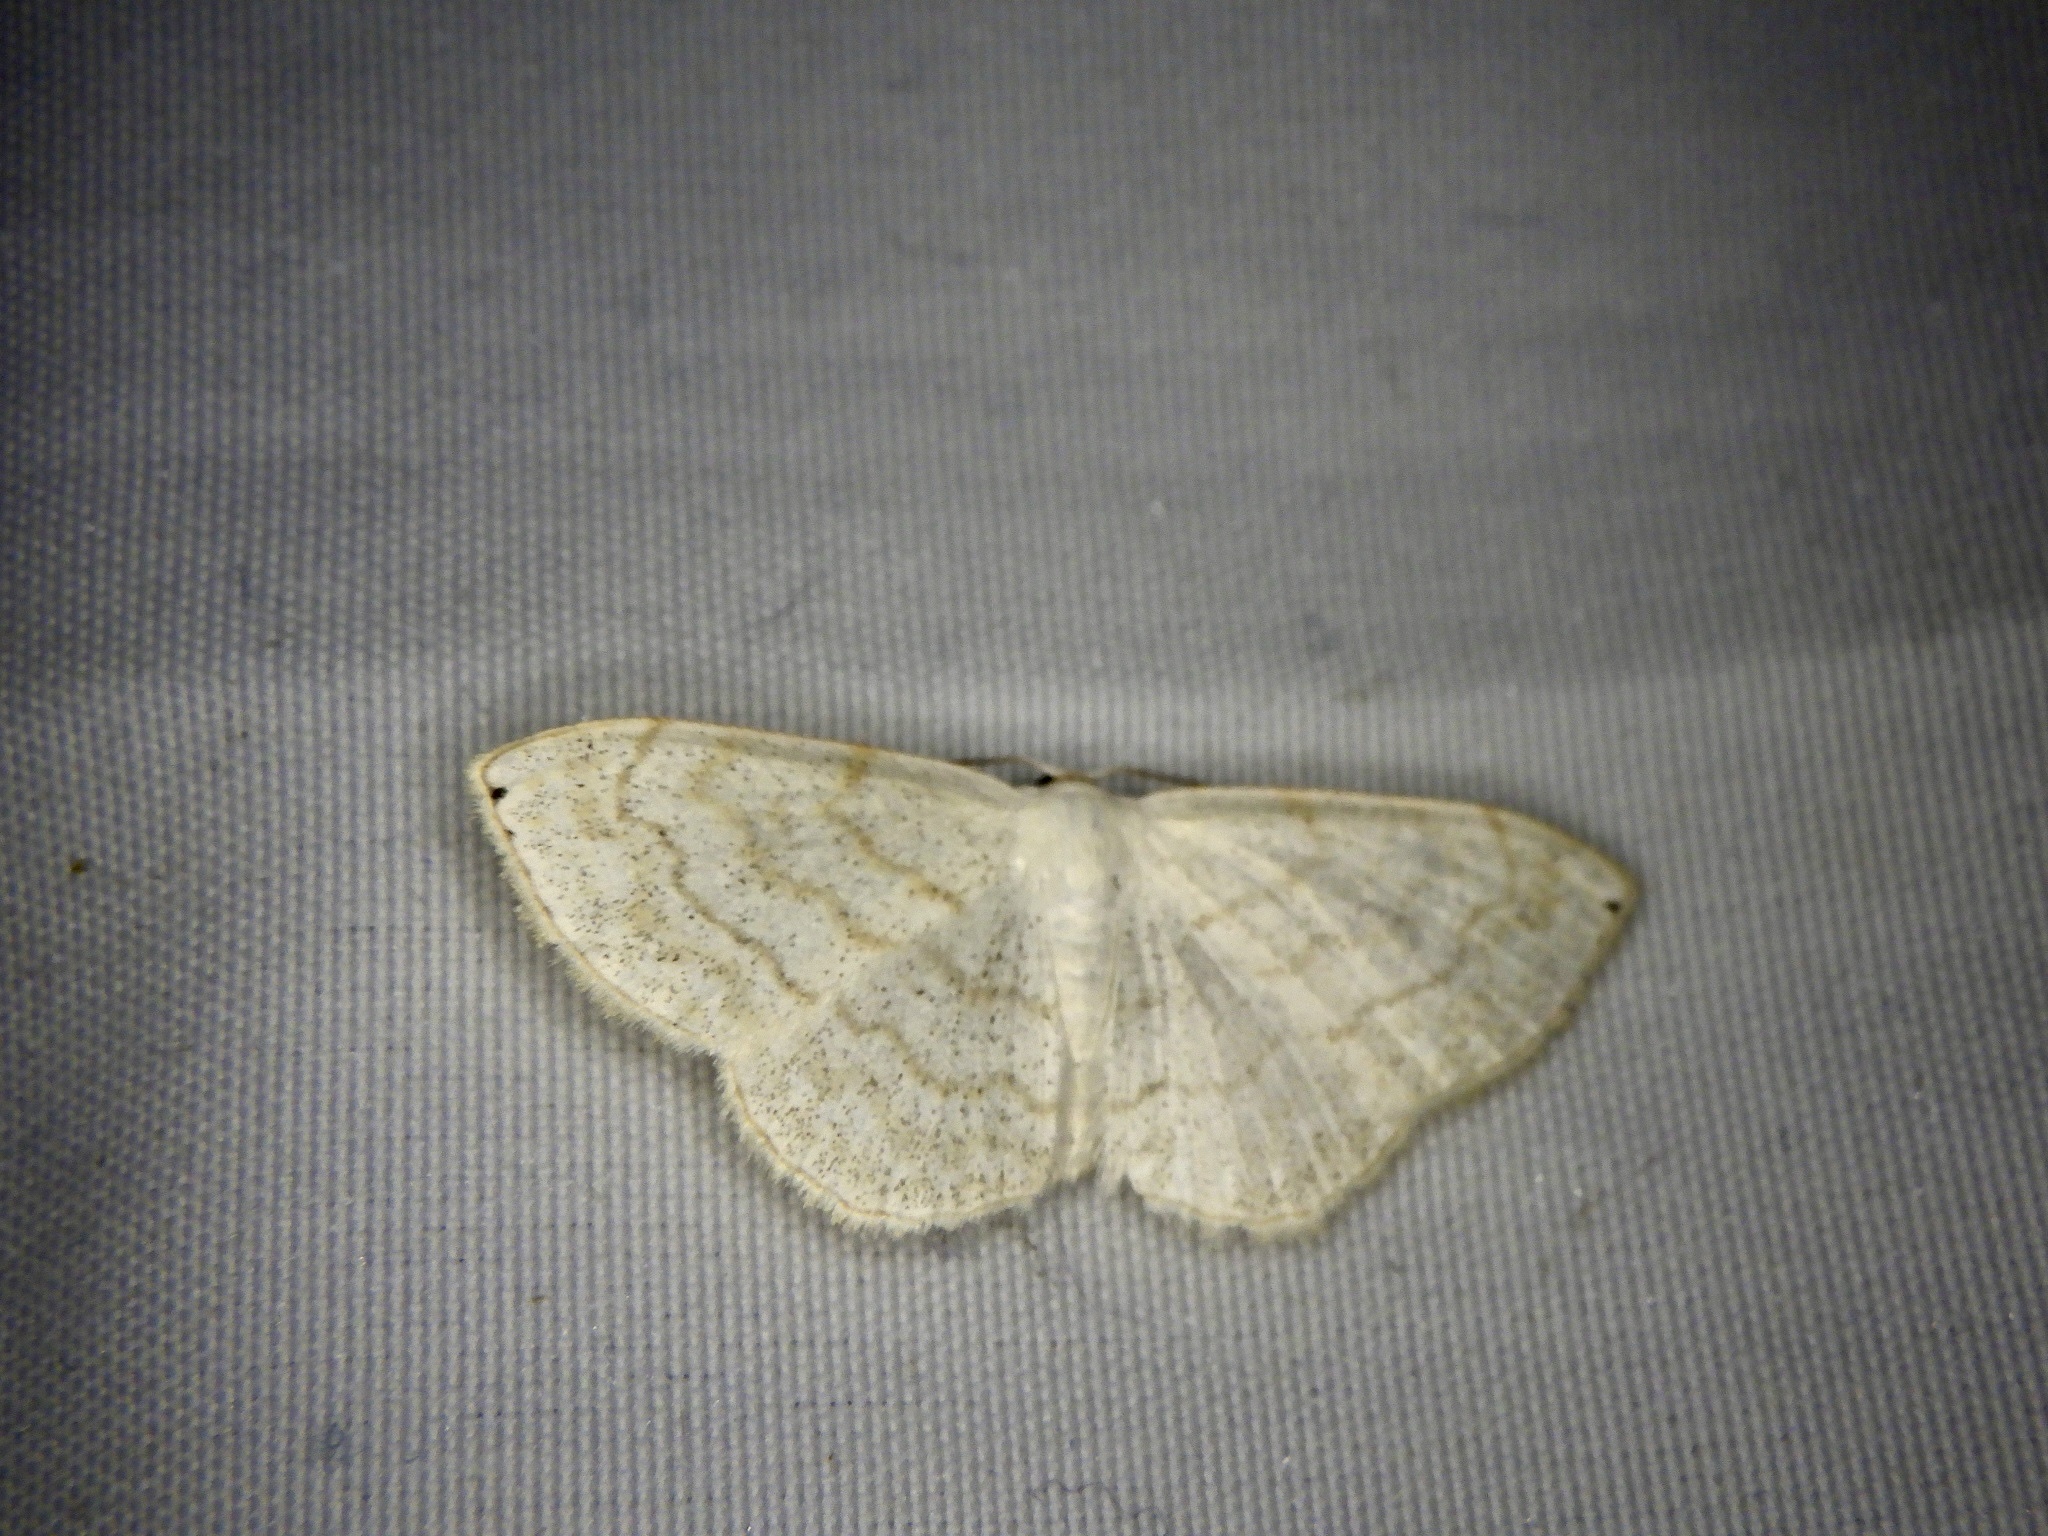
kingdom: Animalia
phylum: Arthropoda
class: Insecta
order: Lepidoptera
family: Geometridae
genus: Scopula
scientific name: Scopula apicipunctata
